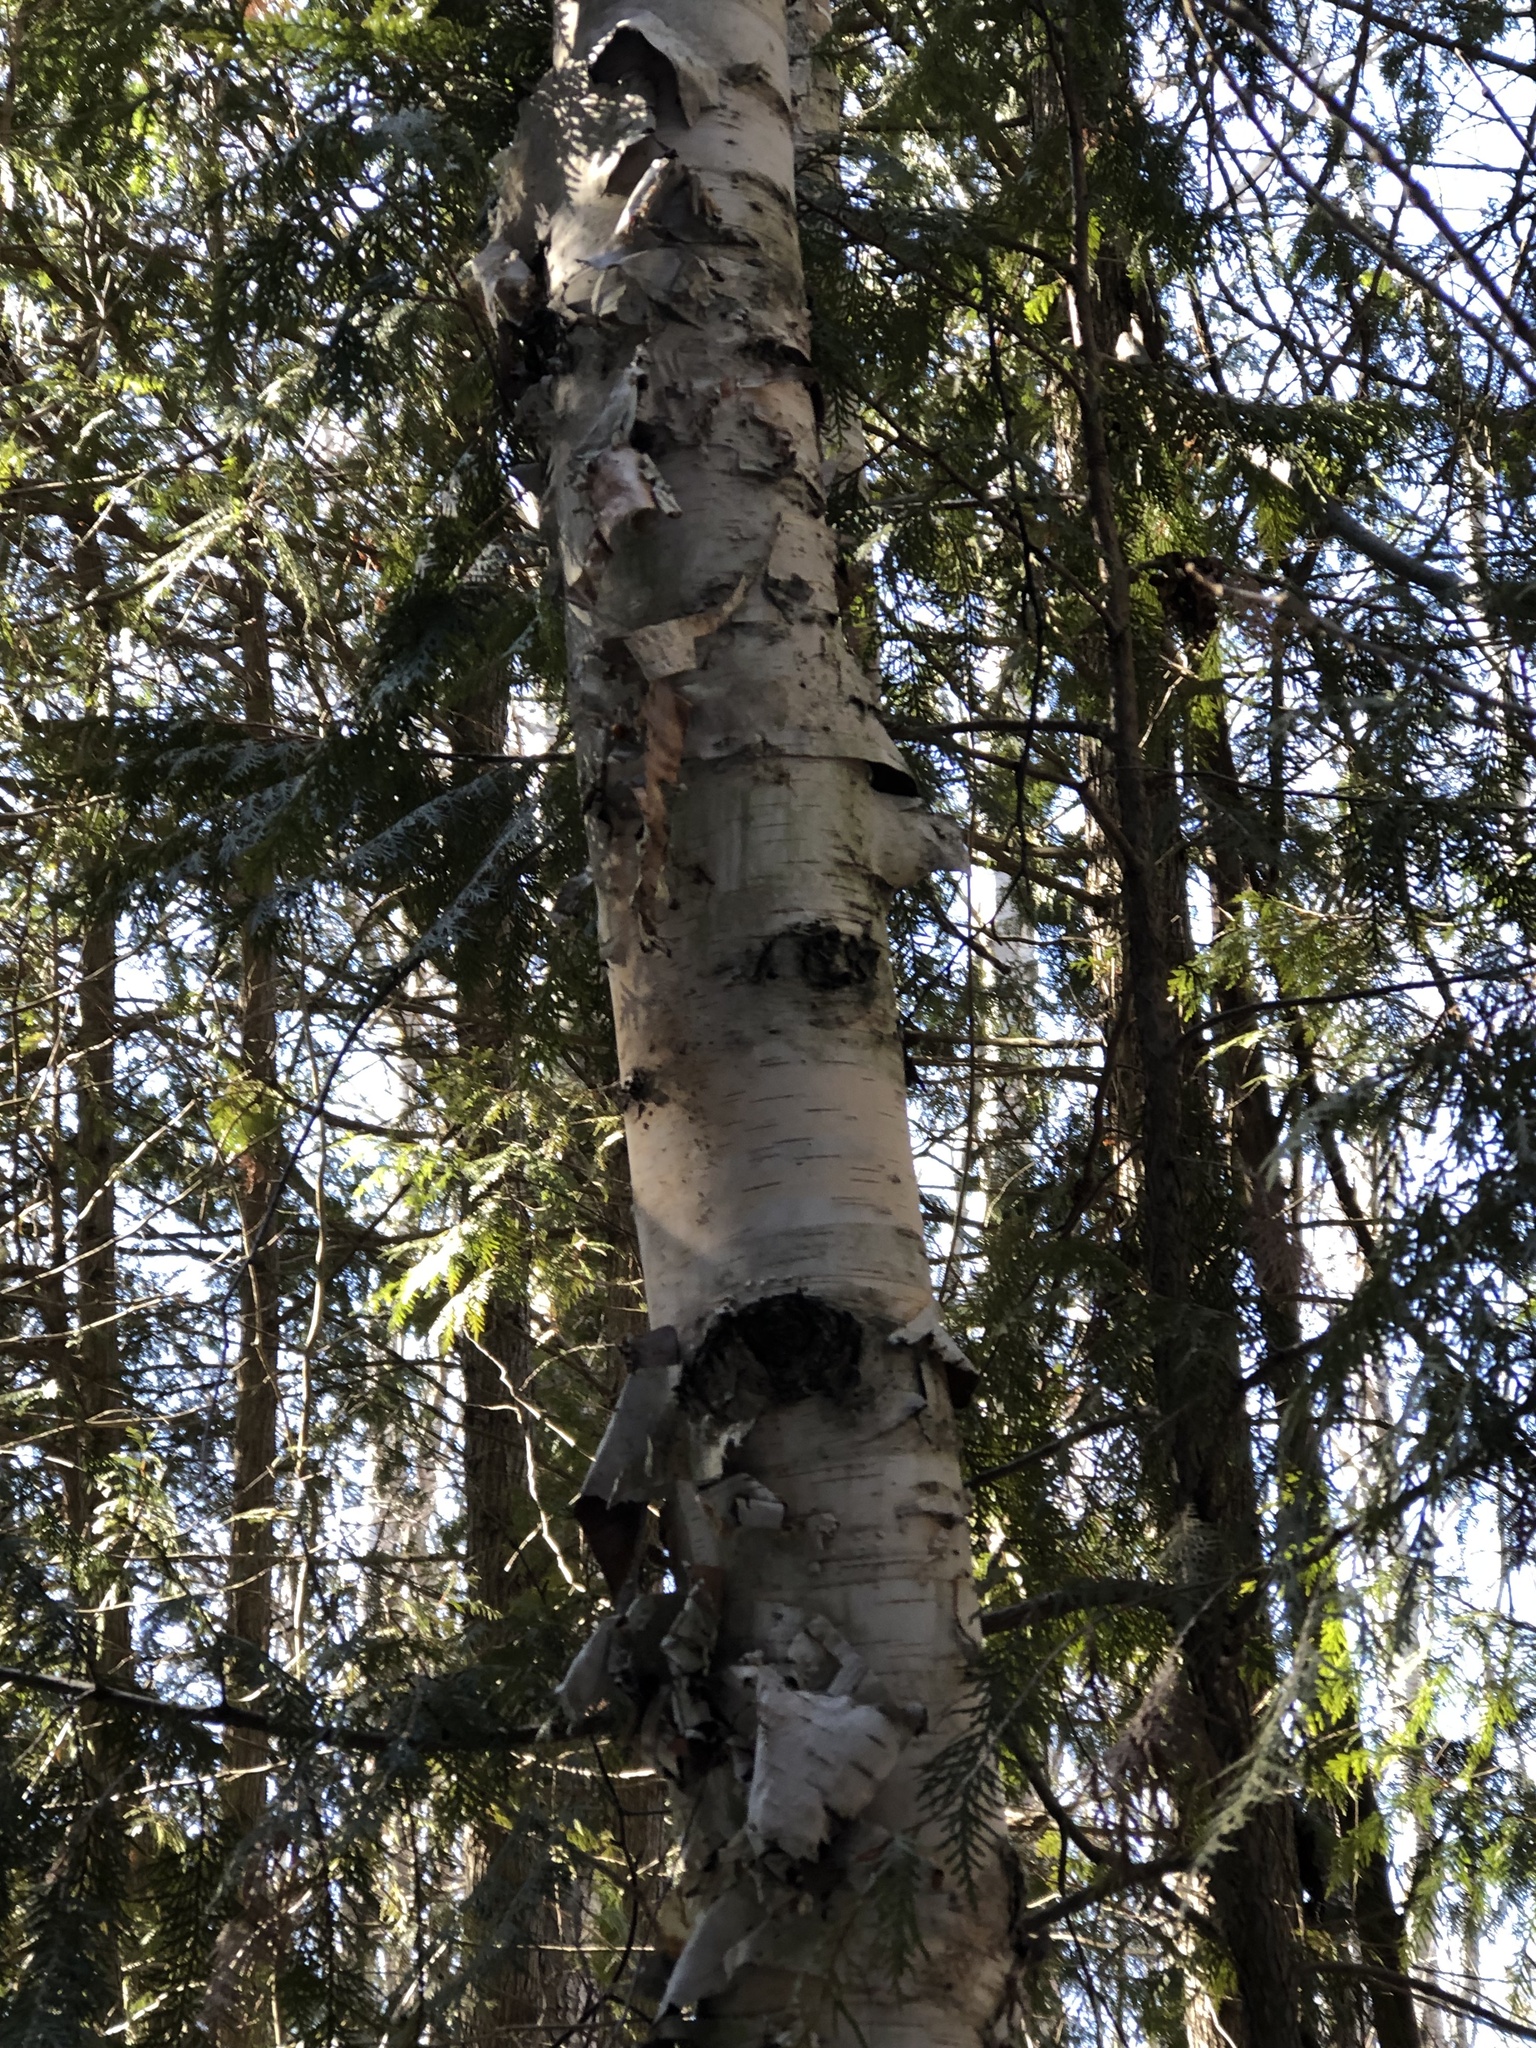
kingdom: Plantae
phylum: Tracheophyta
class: Magnoliopsida
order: Fagales
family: Betulaceae
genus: Betula
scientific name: Betula papyrifera
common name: Paper birch
